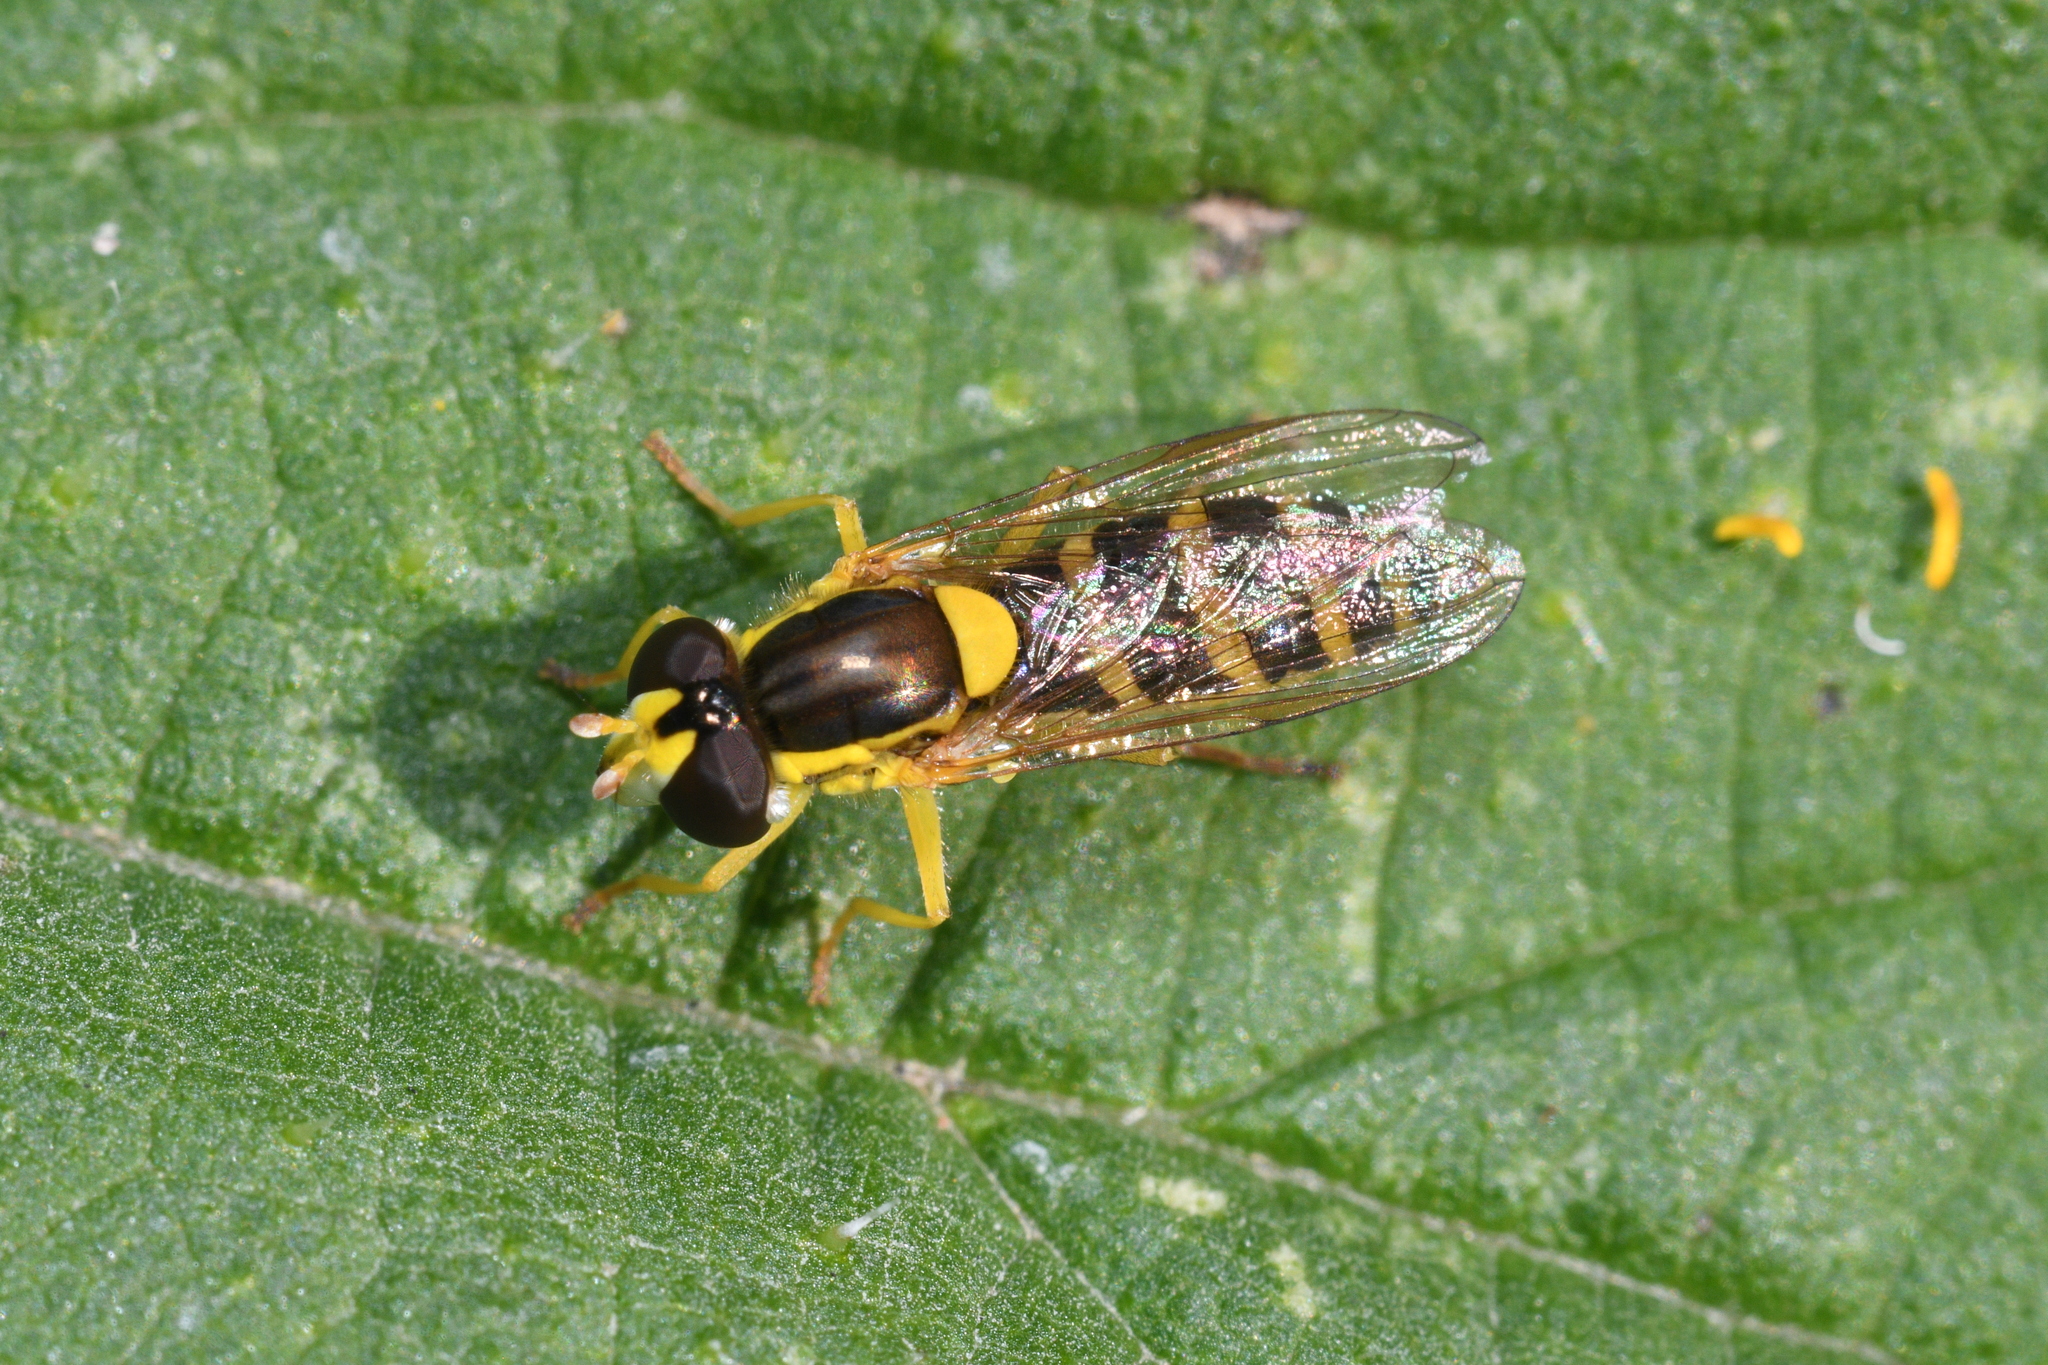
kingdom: Animalia
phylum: Arthropoda
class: Insecta
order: Diptera
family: Syrphidae
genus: Sphaerophoria
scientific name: Sphaerophoria
